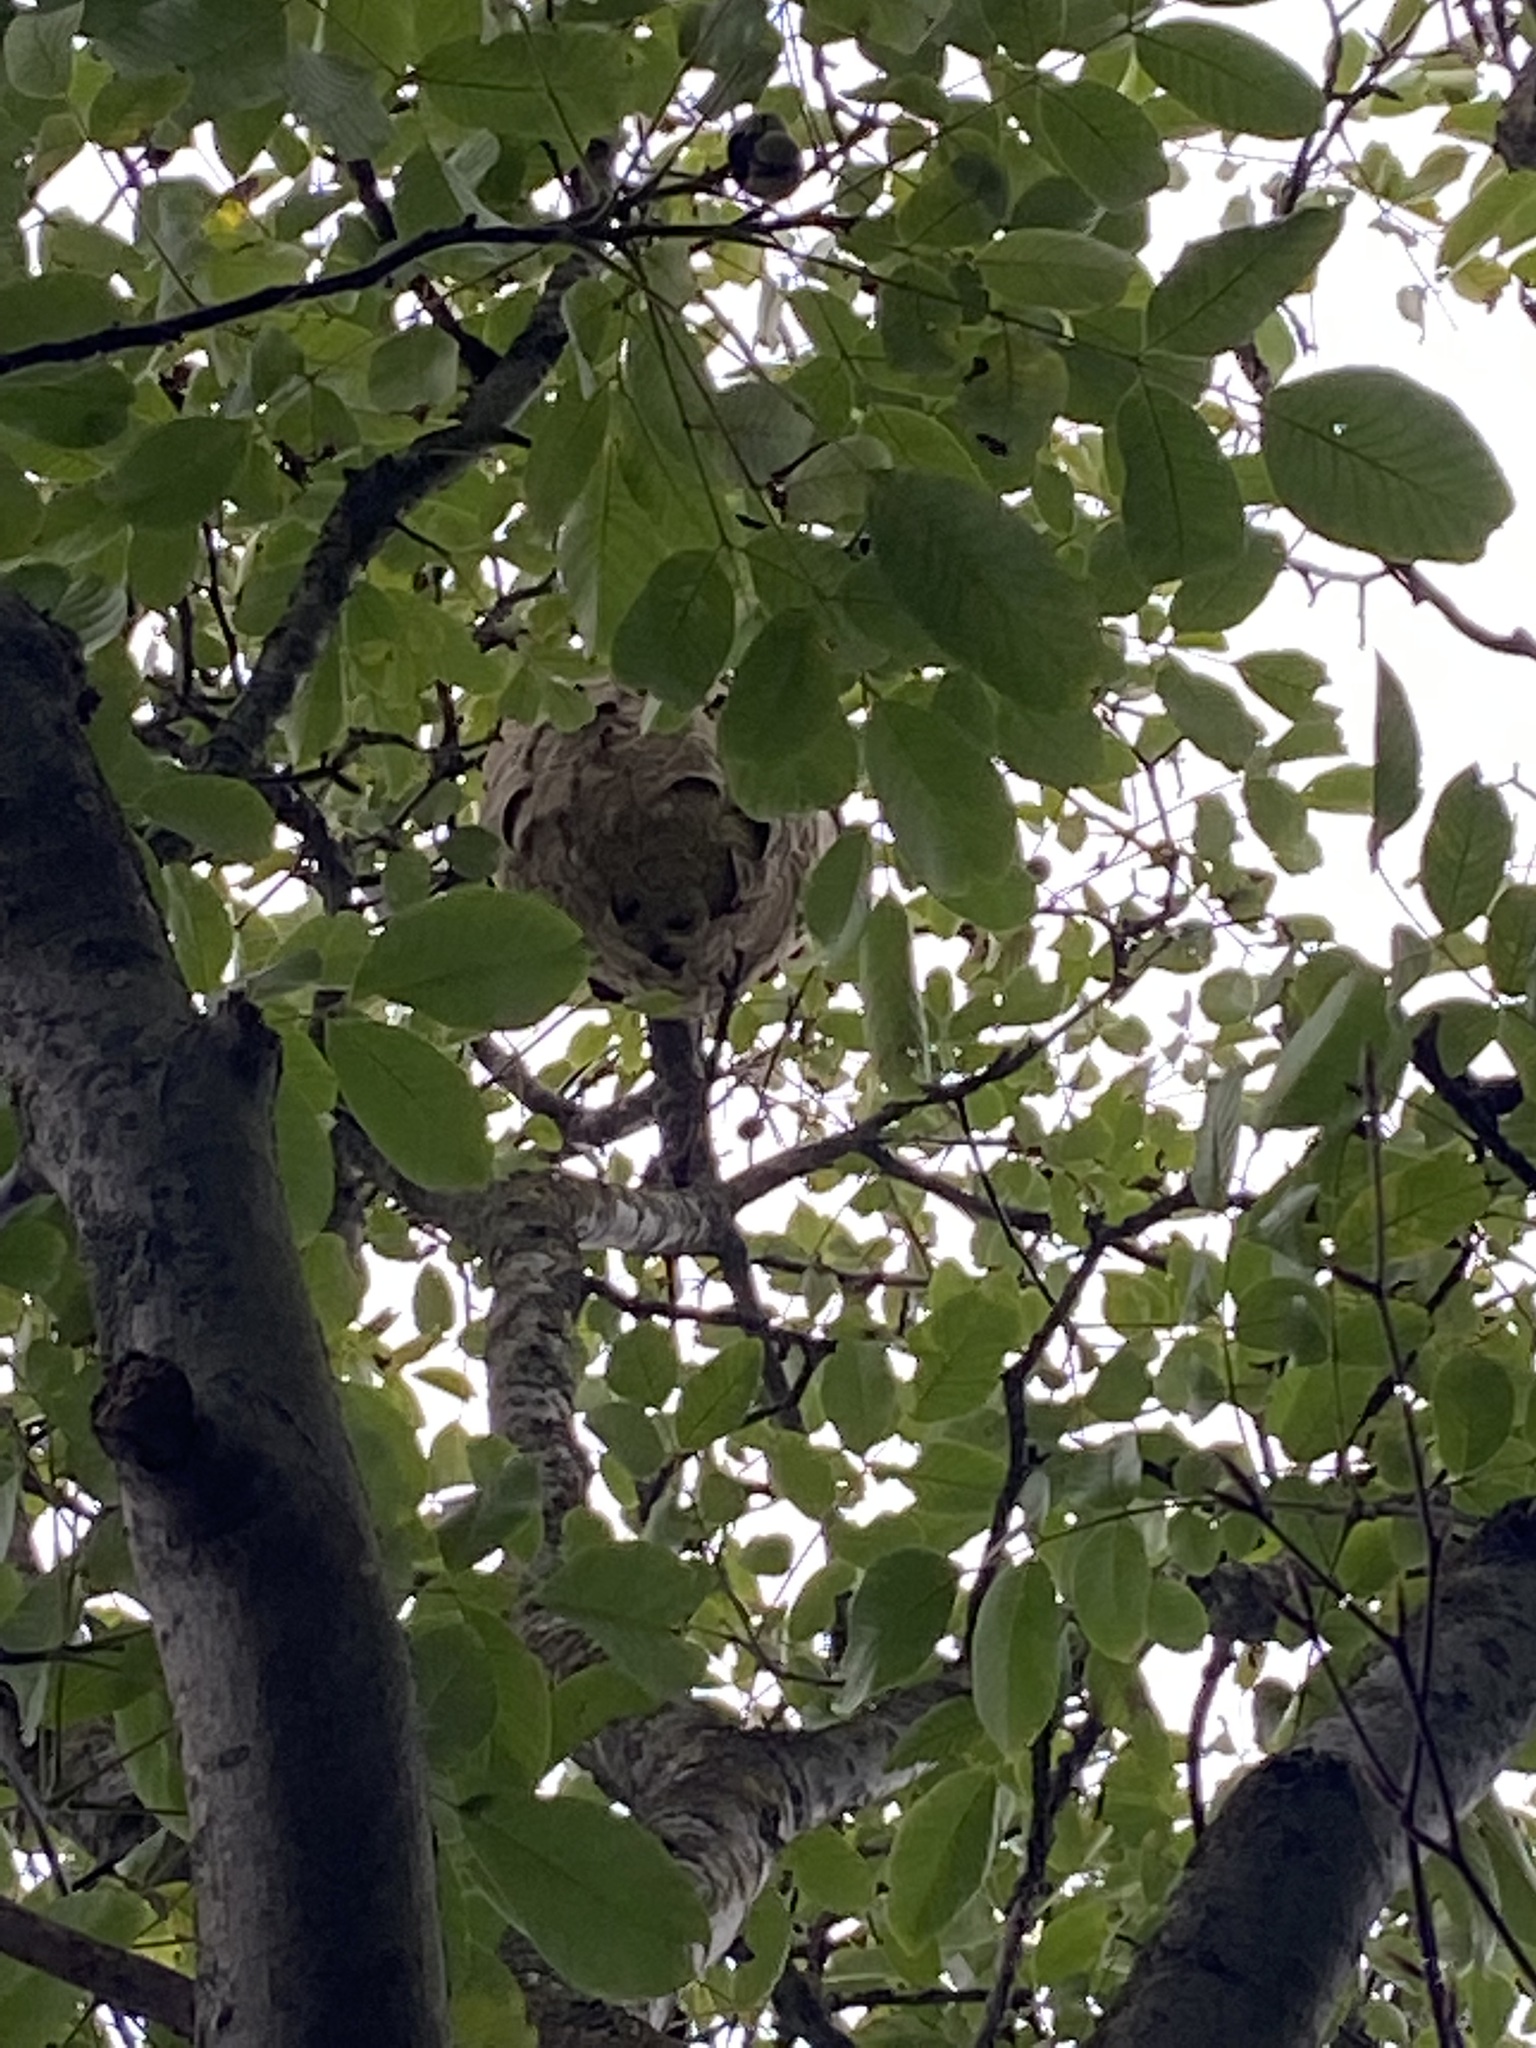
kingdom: Animalia
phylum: Arthropoda
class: Insecta
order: Hymenoptera
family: Vespidae
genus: Vespa
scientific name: Vespa velutina
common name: Asian hornet
